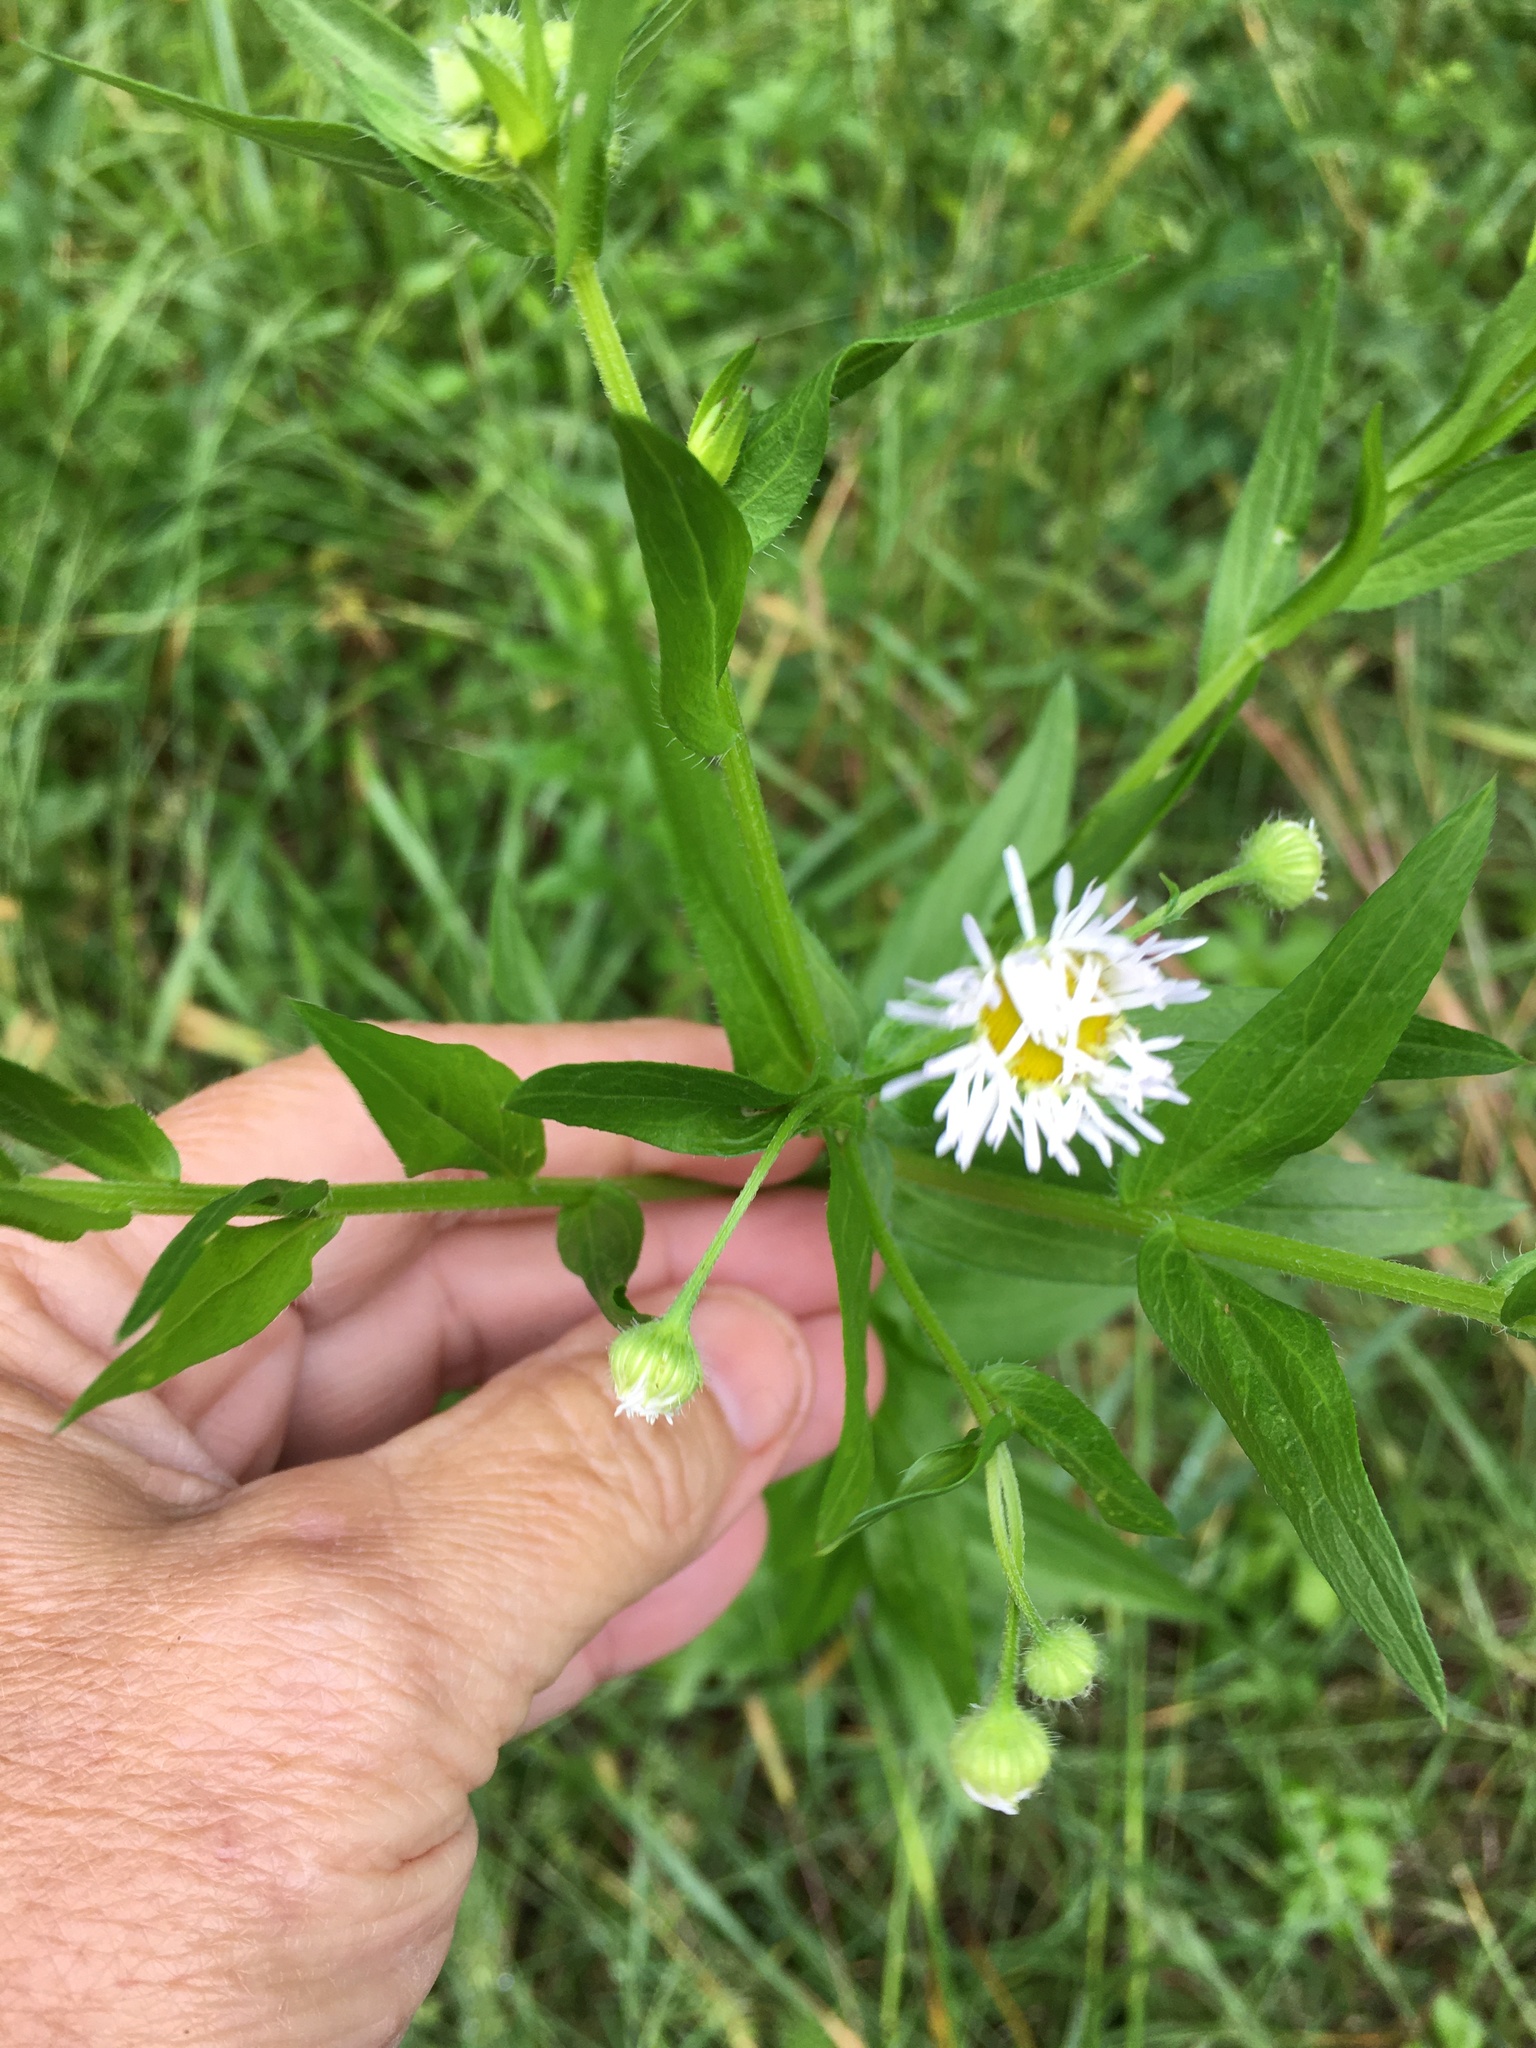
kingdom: Plantae
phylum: Tracheophyta
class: Magnoliopsida
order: Asterales
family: Asteraceae
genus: Erigeron
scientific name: Erigeron annuus
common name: Tall fleabane
